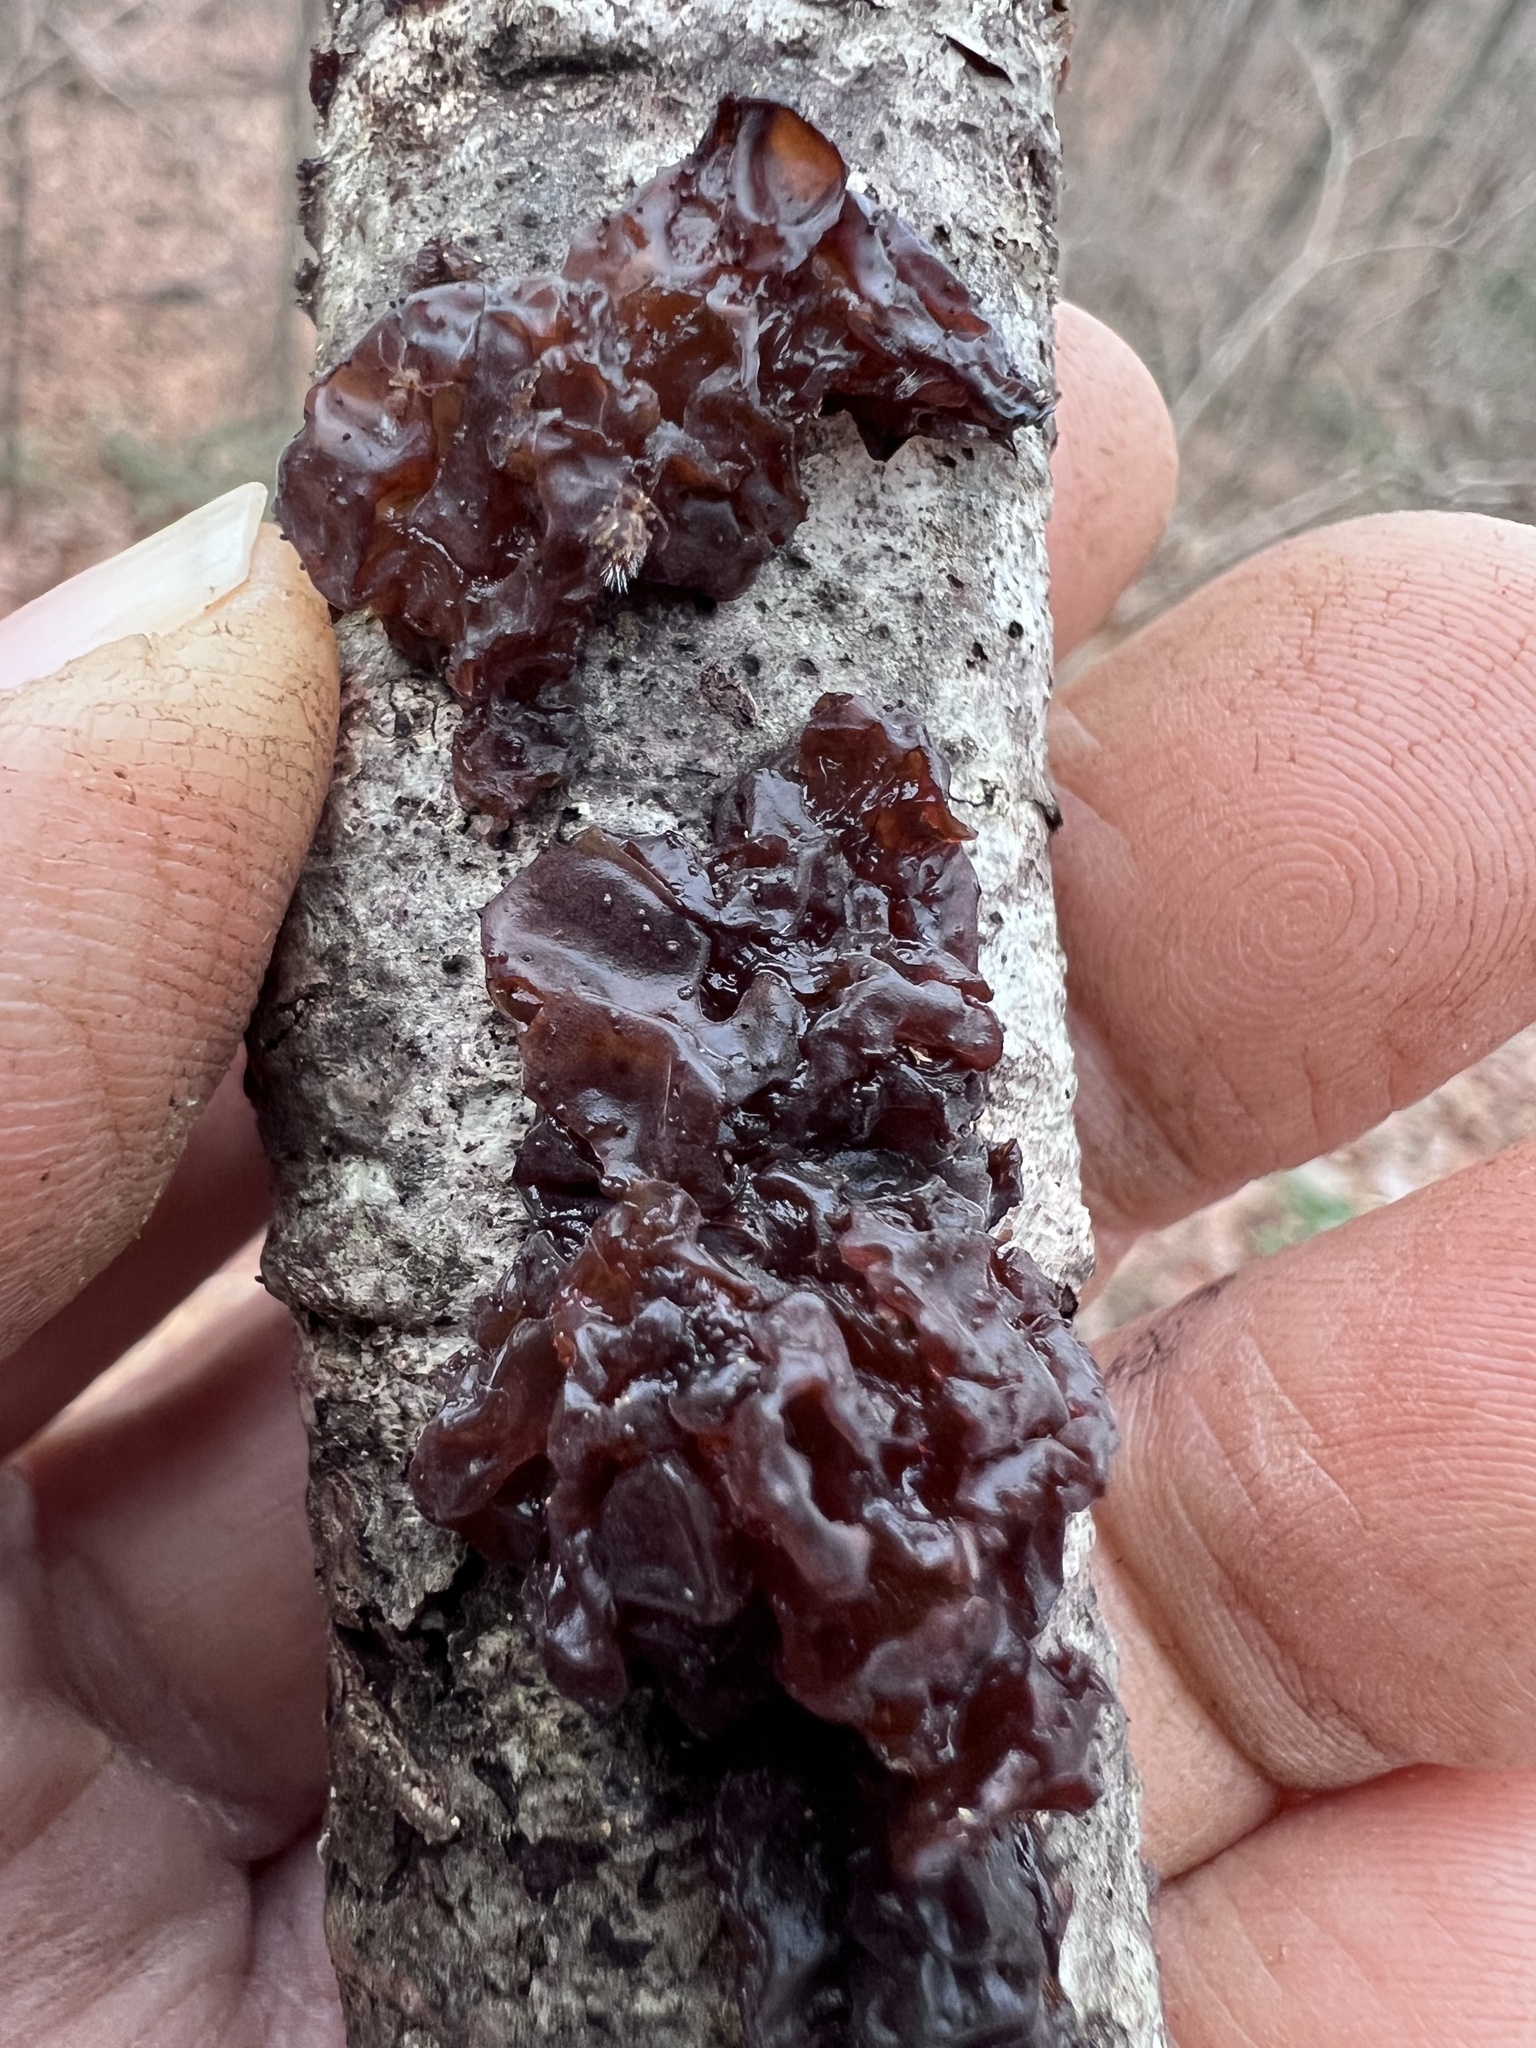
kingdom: Fungi
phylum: Basidiomycota
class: Agaricomycetes
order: Auriculariales
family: Auriculariaceae
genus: Exidia
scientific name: Exidia
